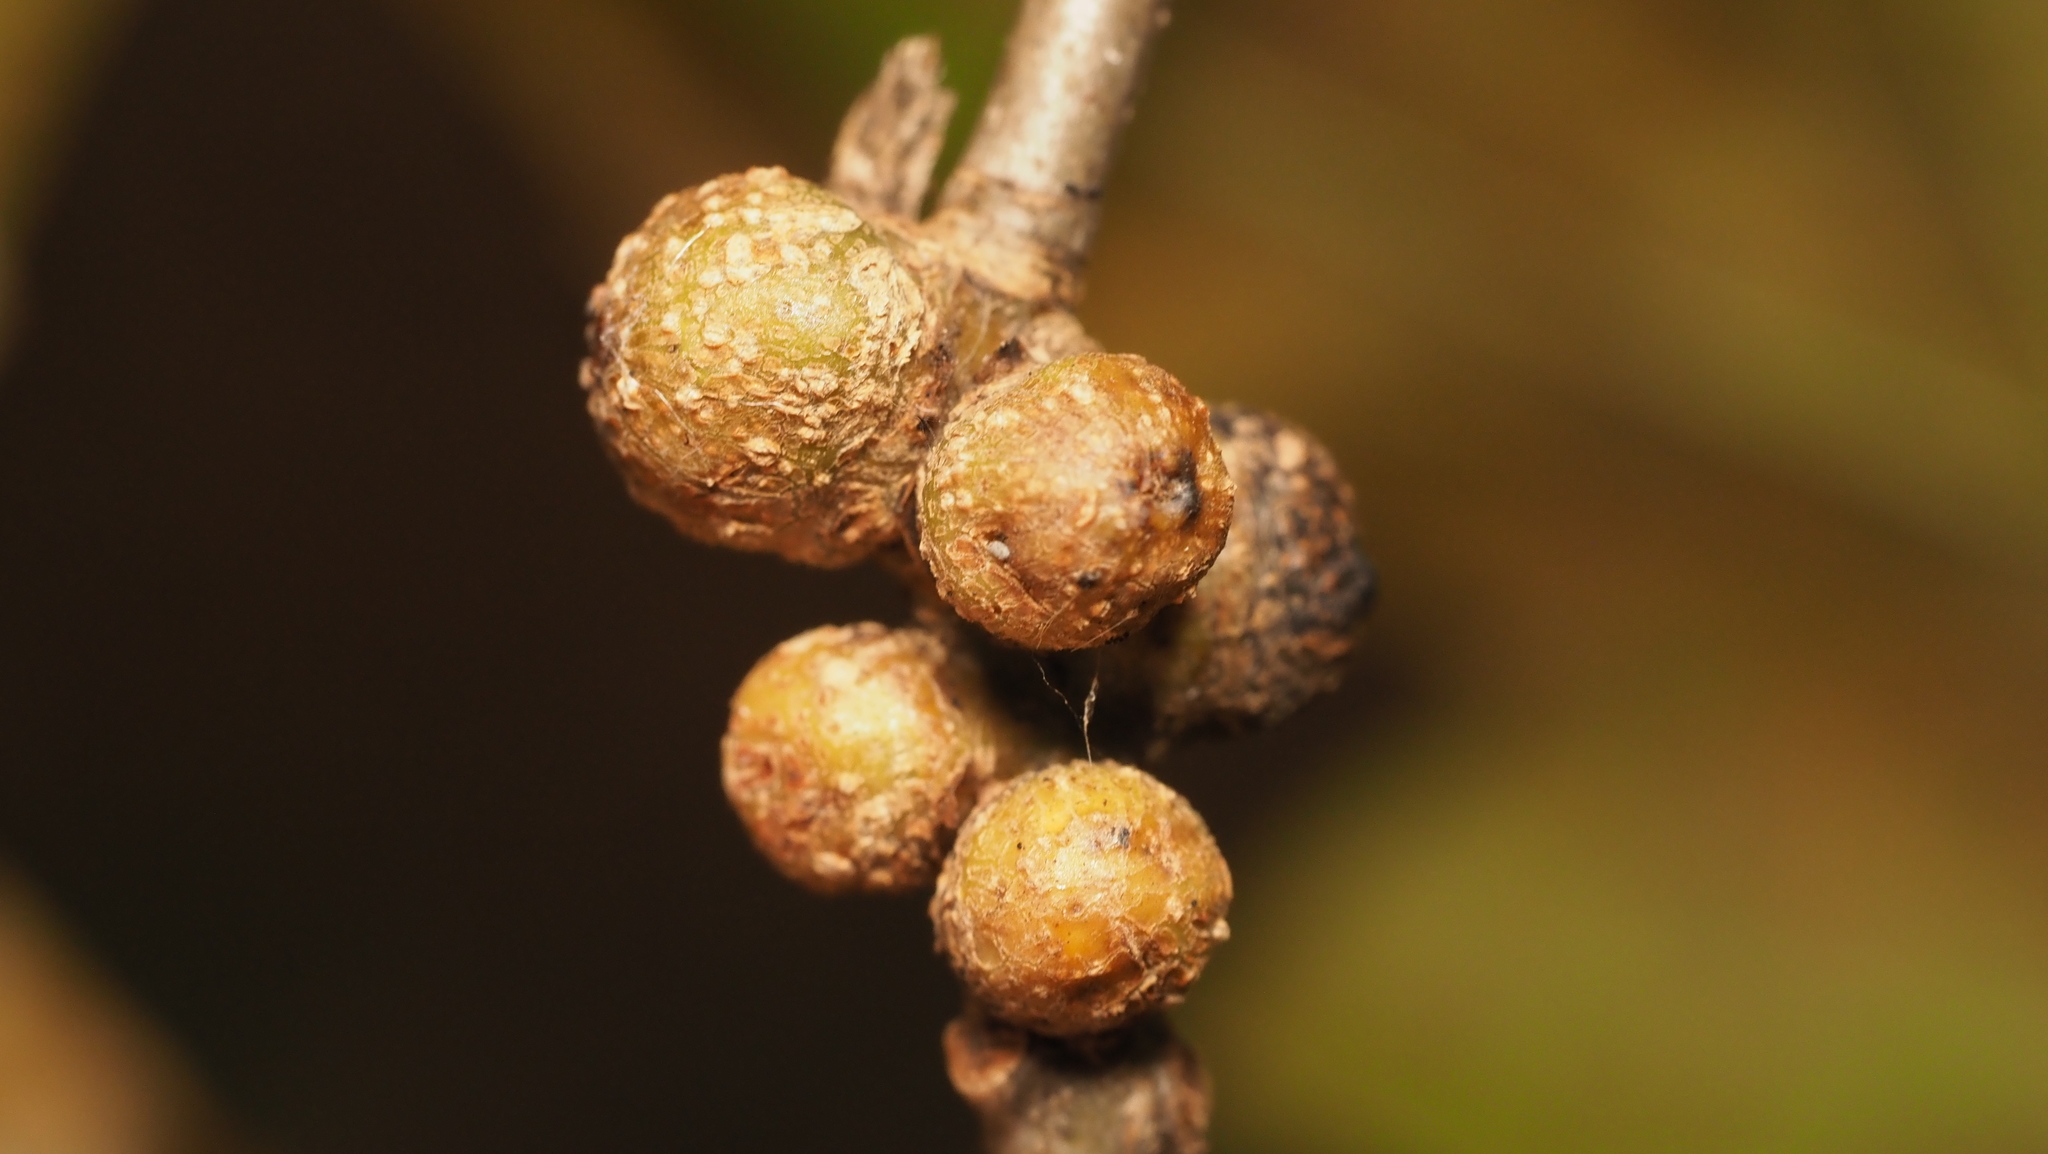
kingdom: Animalia
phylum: Arthropoda
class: Insecta
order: Hymenoptera
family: Cynipidae
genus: Synergus
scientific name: Synergus lignicola
